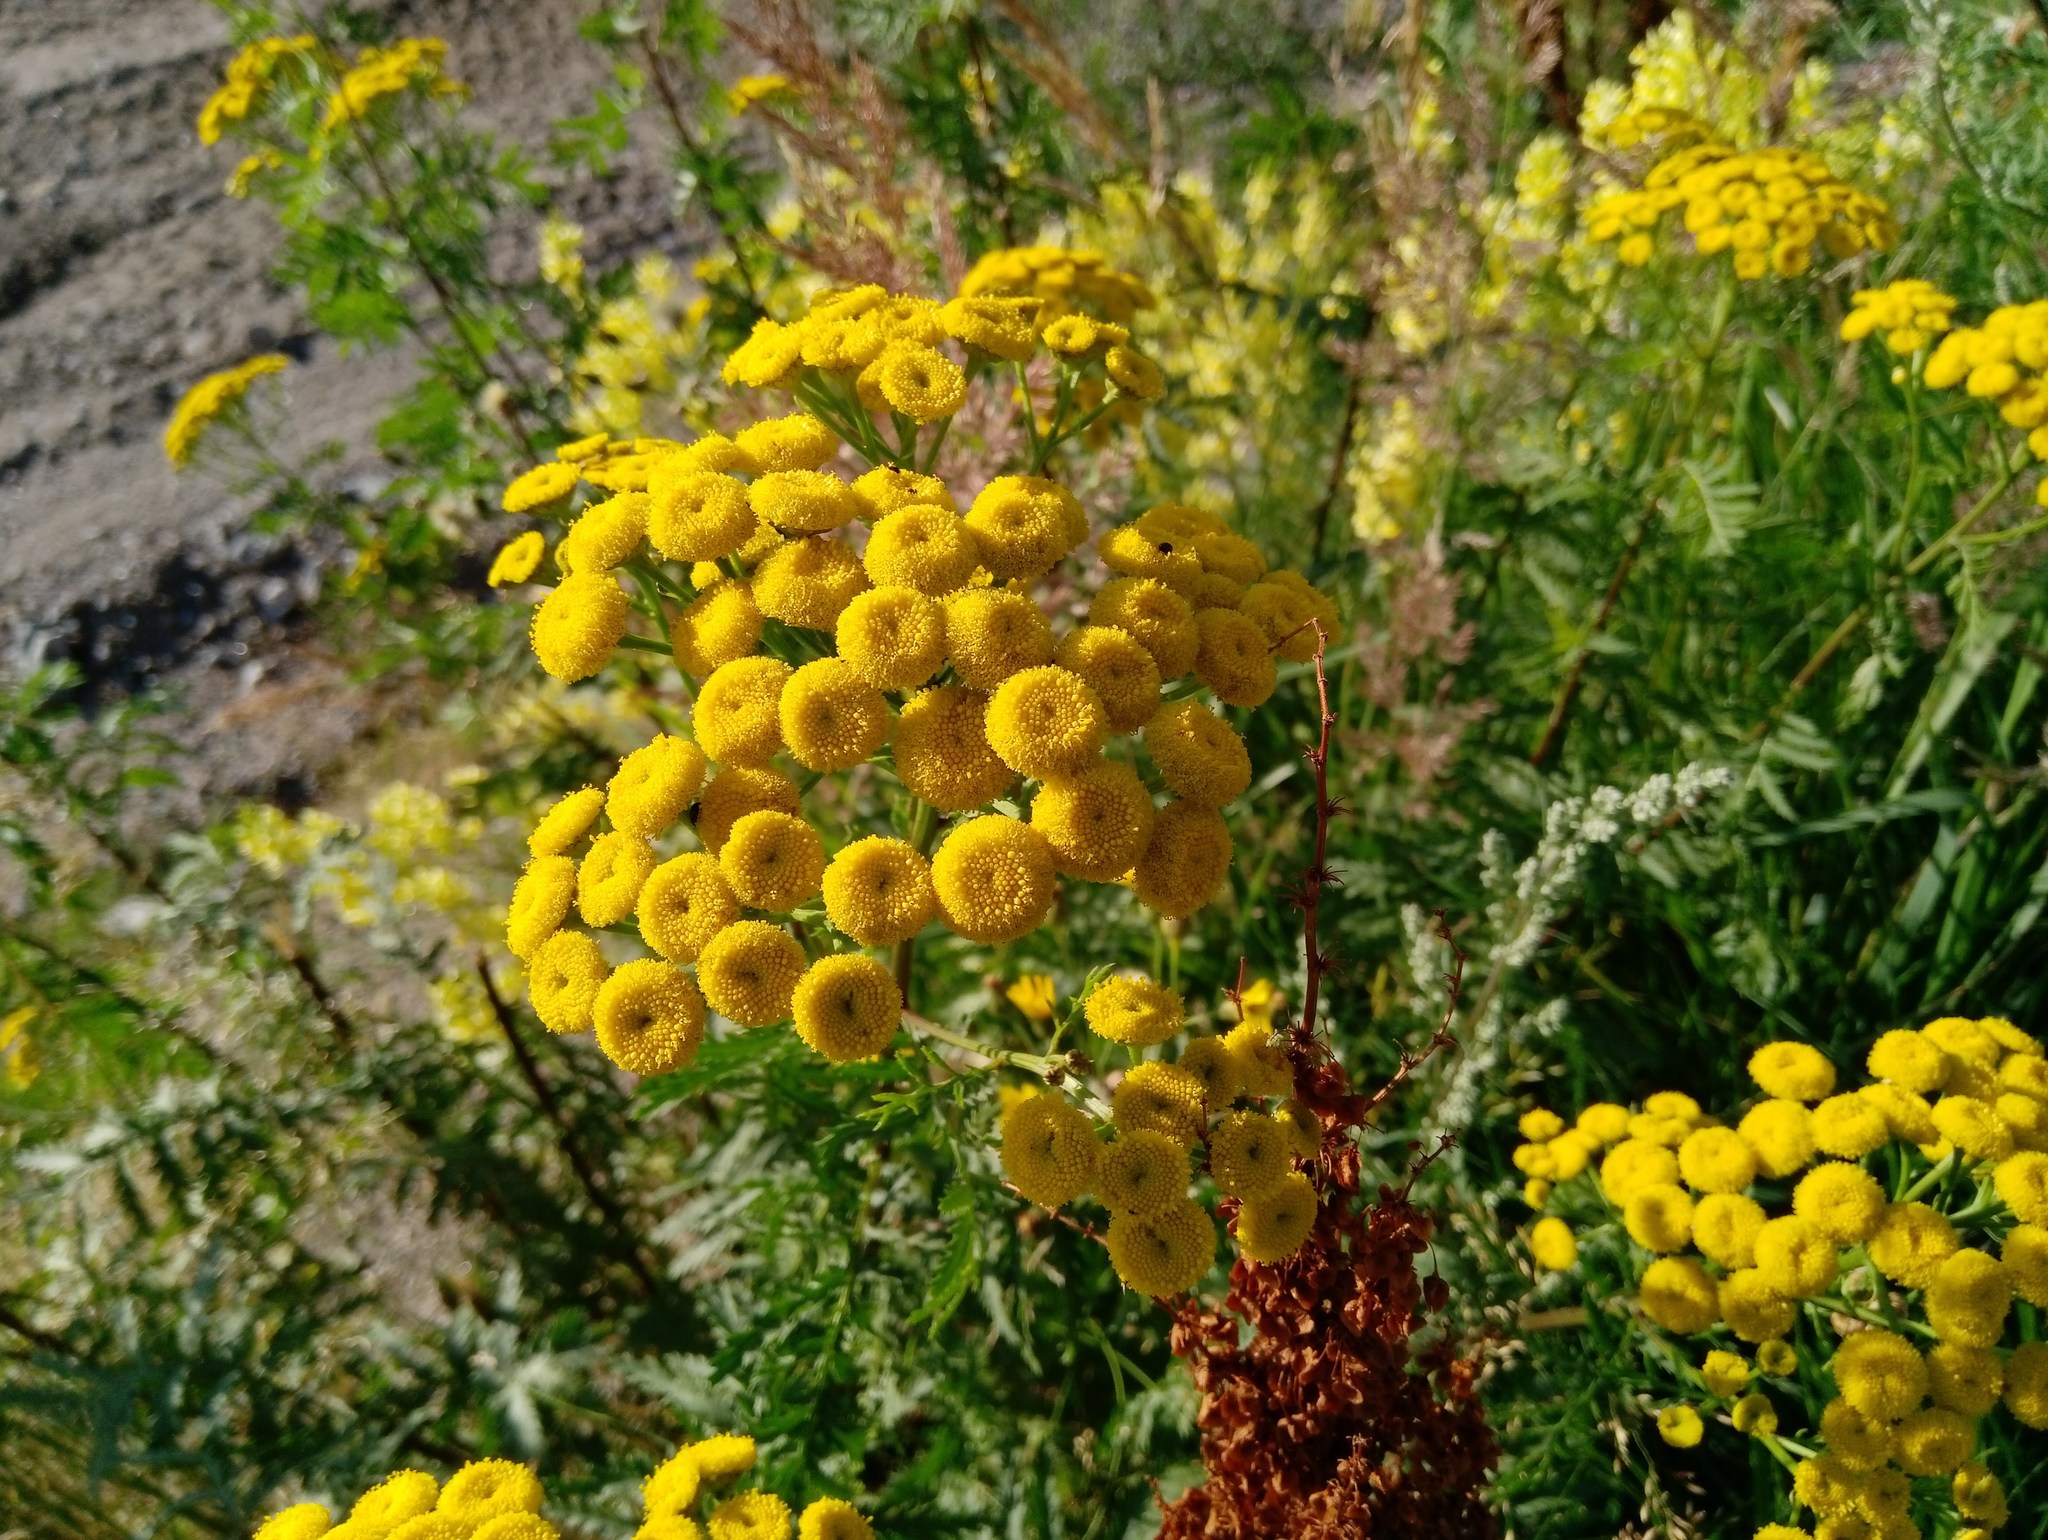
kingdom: Plantae
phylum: Tracheophyta
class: Magnoliopsida
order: Asterales
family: Asteraceae
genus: Tanacetum
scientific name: Tanacetum vulgare
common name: Common tansy
